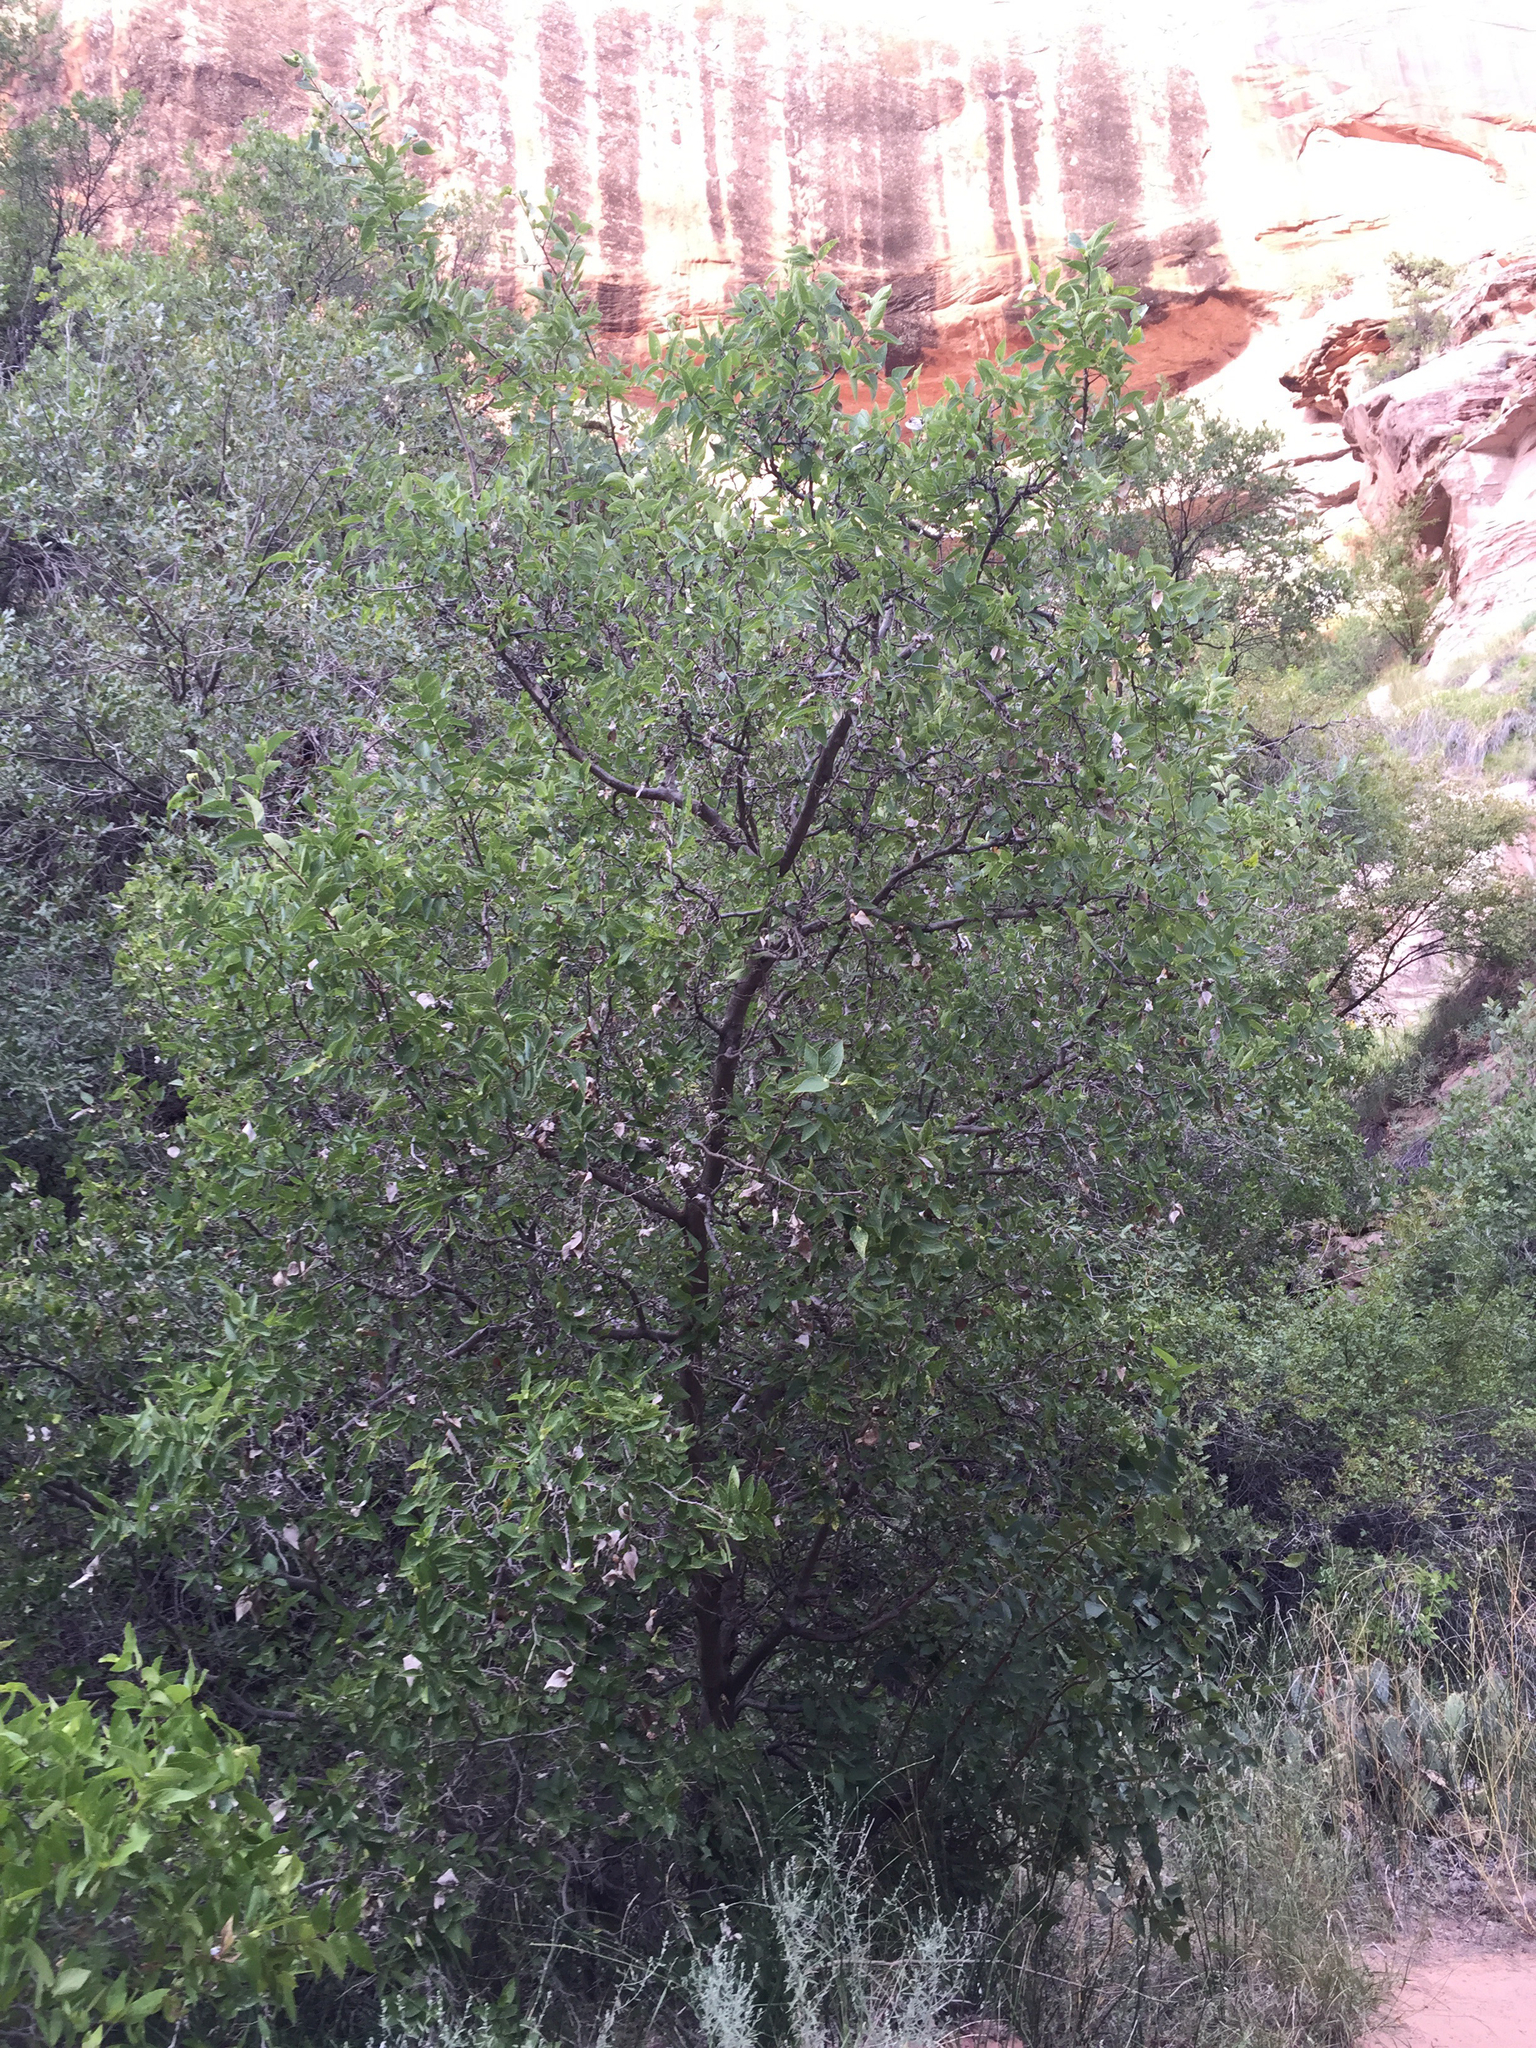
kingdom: Plantae
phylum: Tracheophyta
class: Magnoliopsida
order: Rosales
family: Cannabaceae
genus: Celtis
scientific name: Celtis reticulata
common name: Netleaf hackberry
